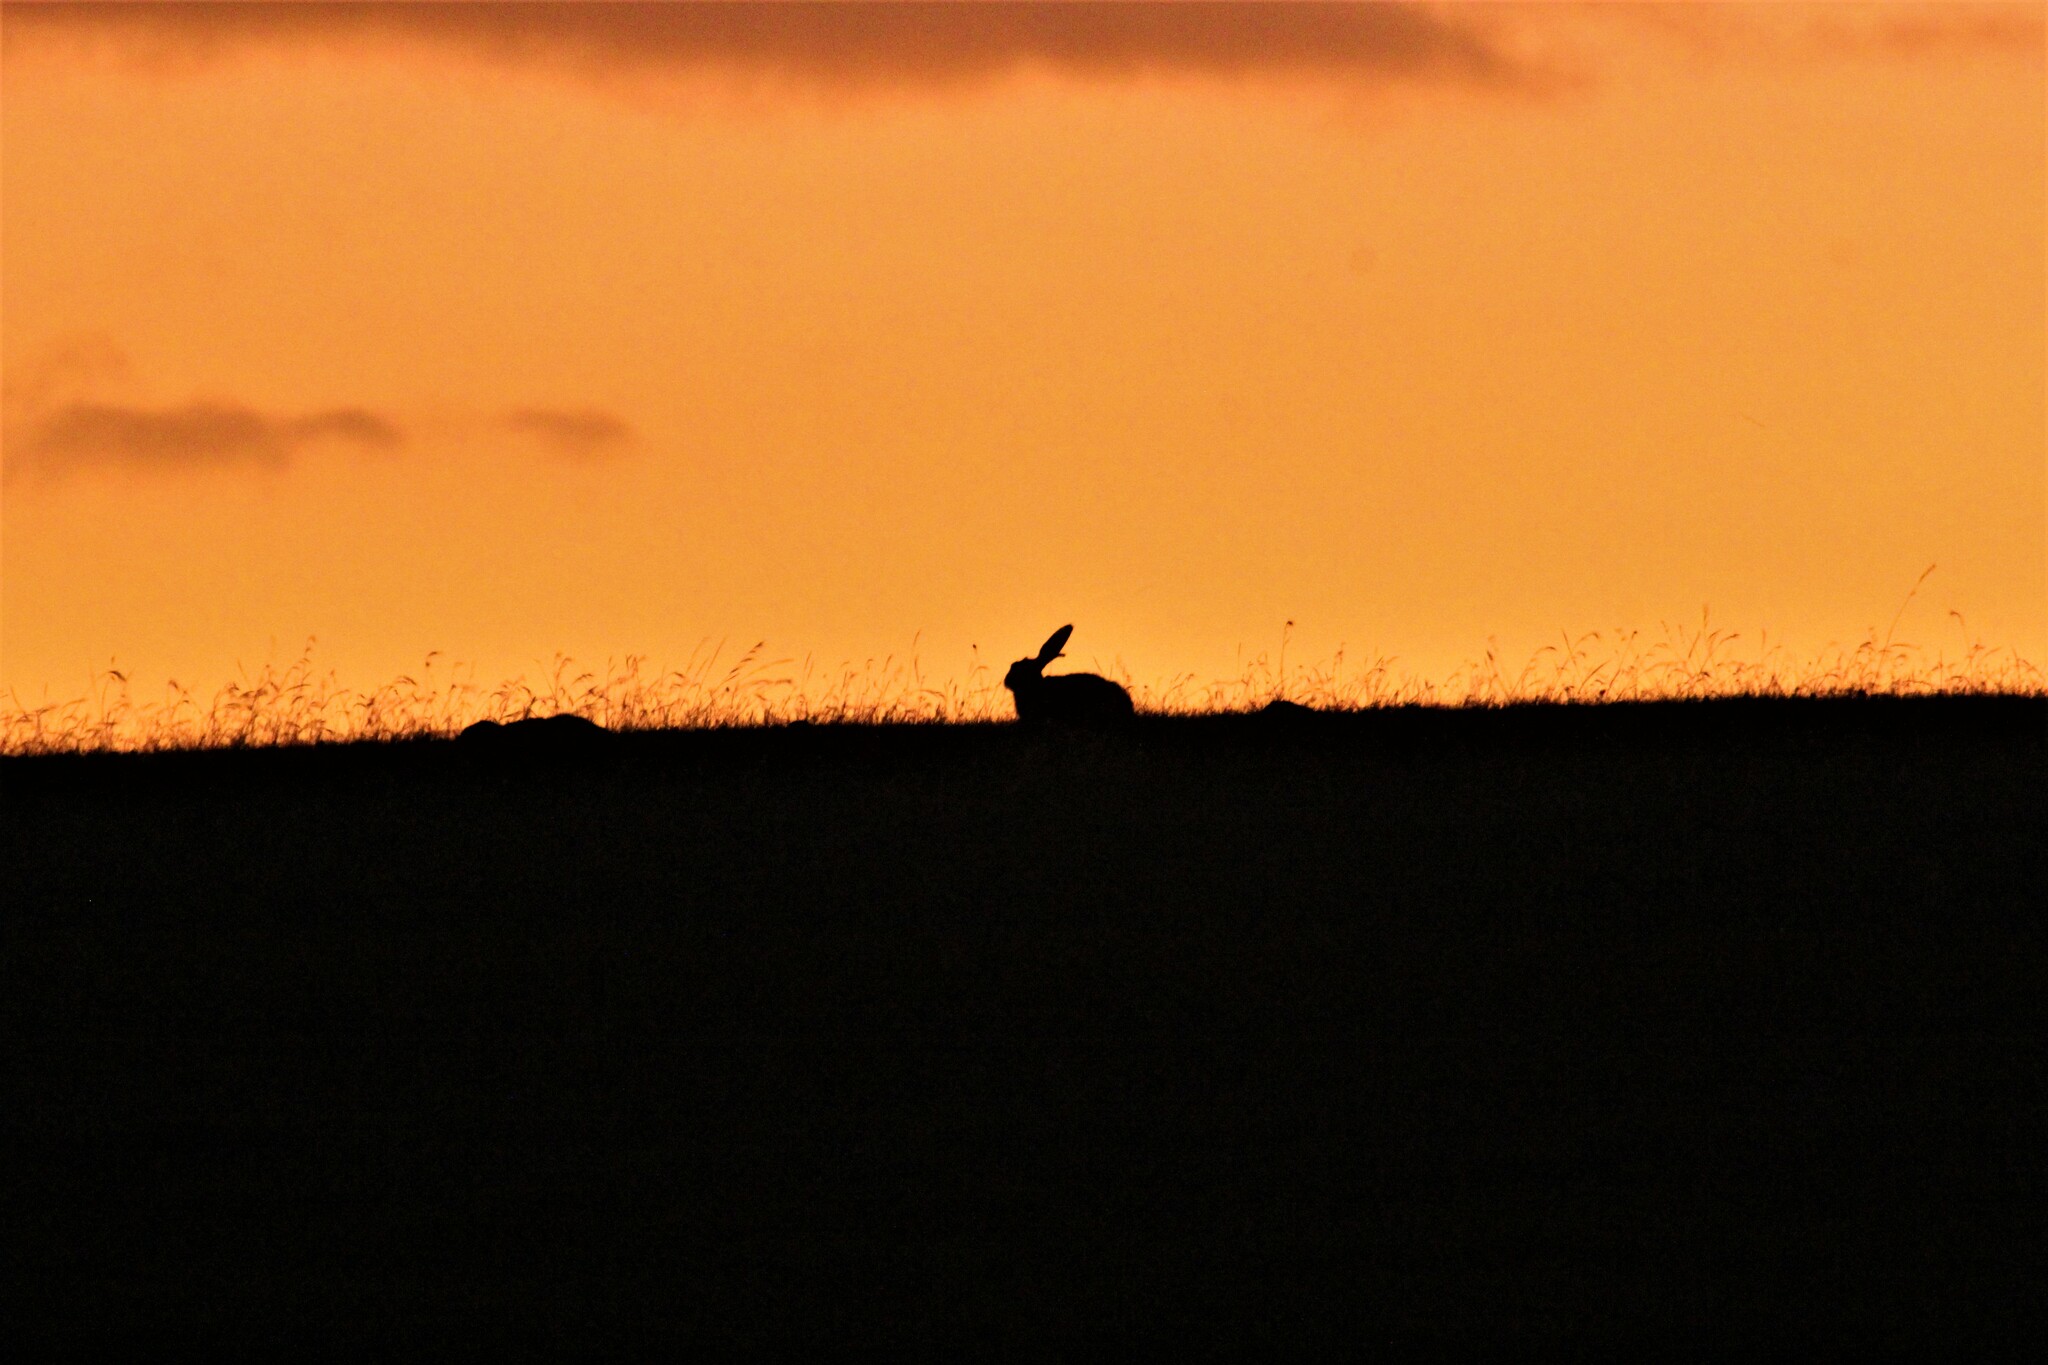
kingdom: Animalia
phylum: Chordata
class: Mammalia
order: Lagomorpha
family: Leporidae
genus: Lepus
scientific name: Lepus europaeus
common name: European hare
